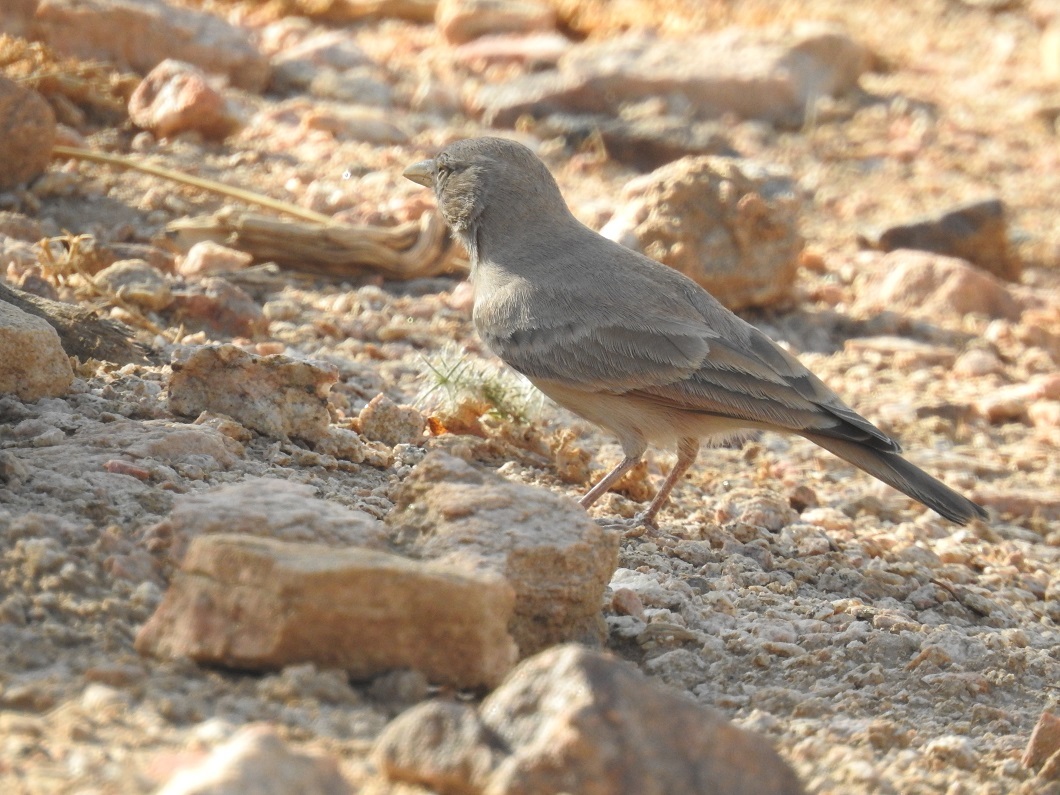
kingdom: Animalia
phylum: Chordata
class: Aves
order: Passeriformes
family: Alaudidae
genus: Ammomanes
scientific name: Ammomanes deserti
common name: Desert lark
